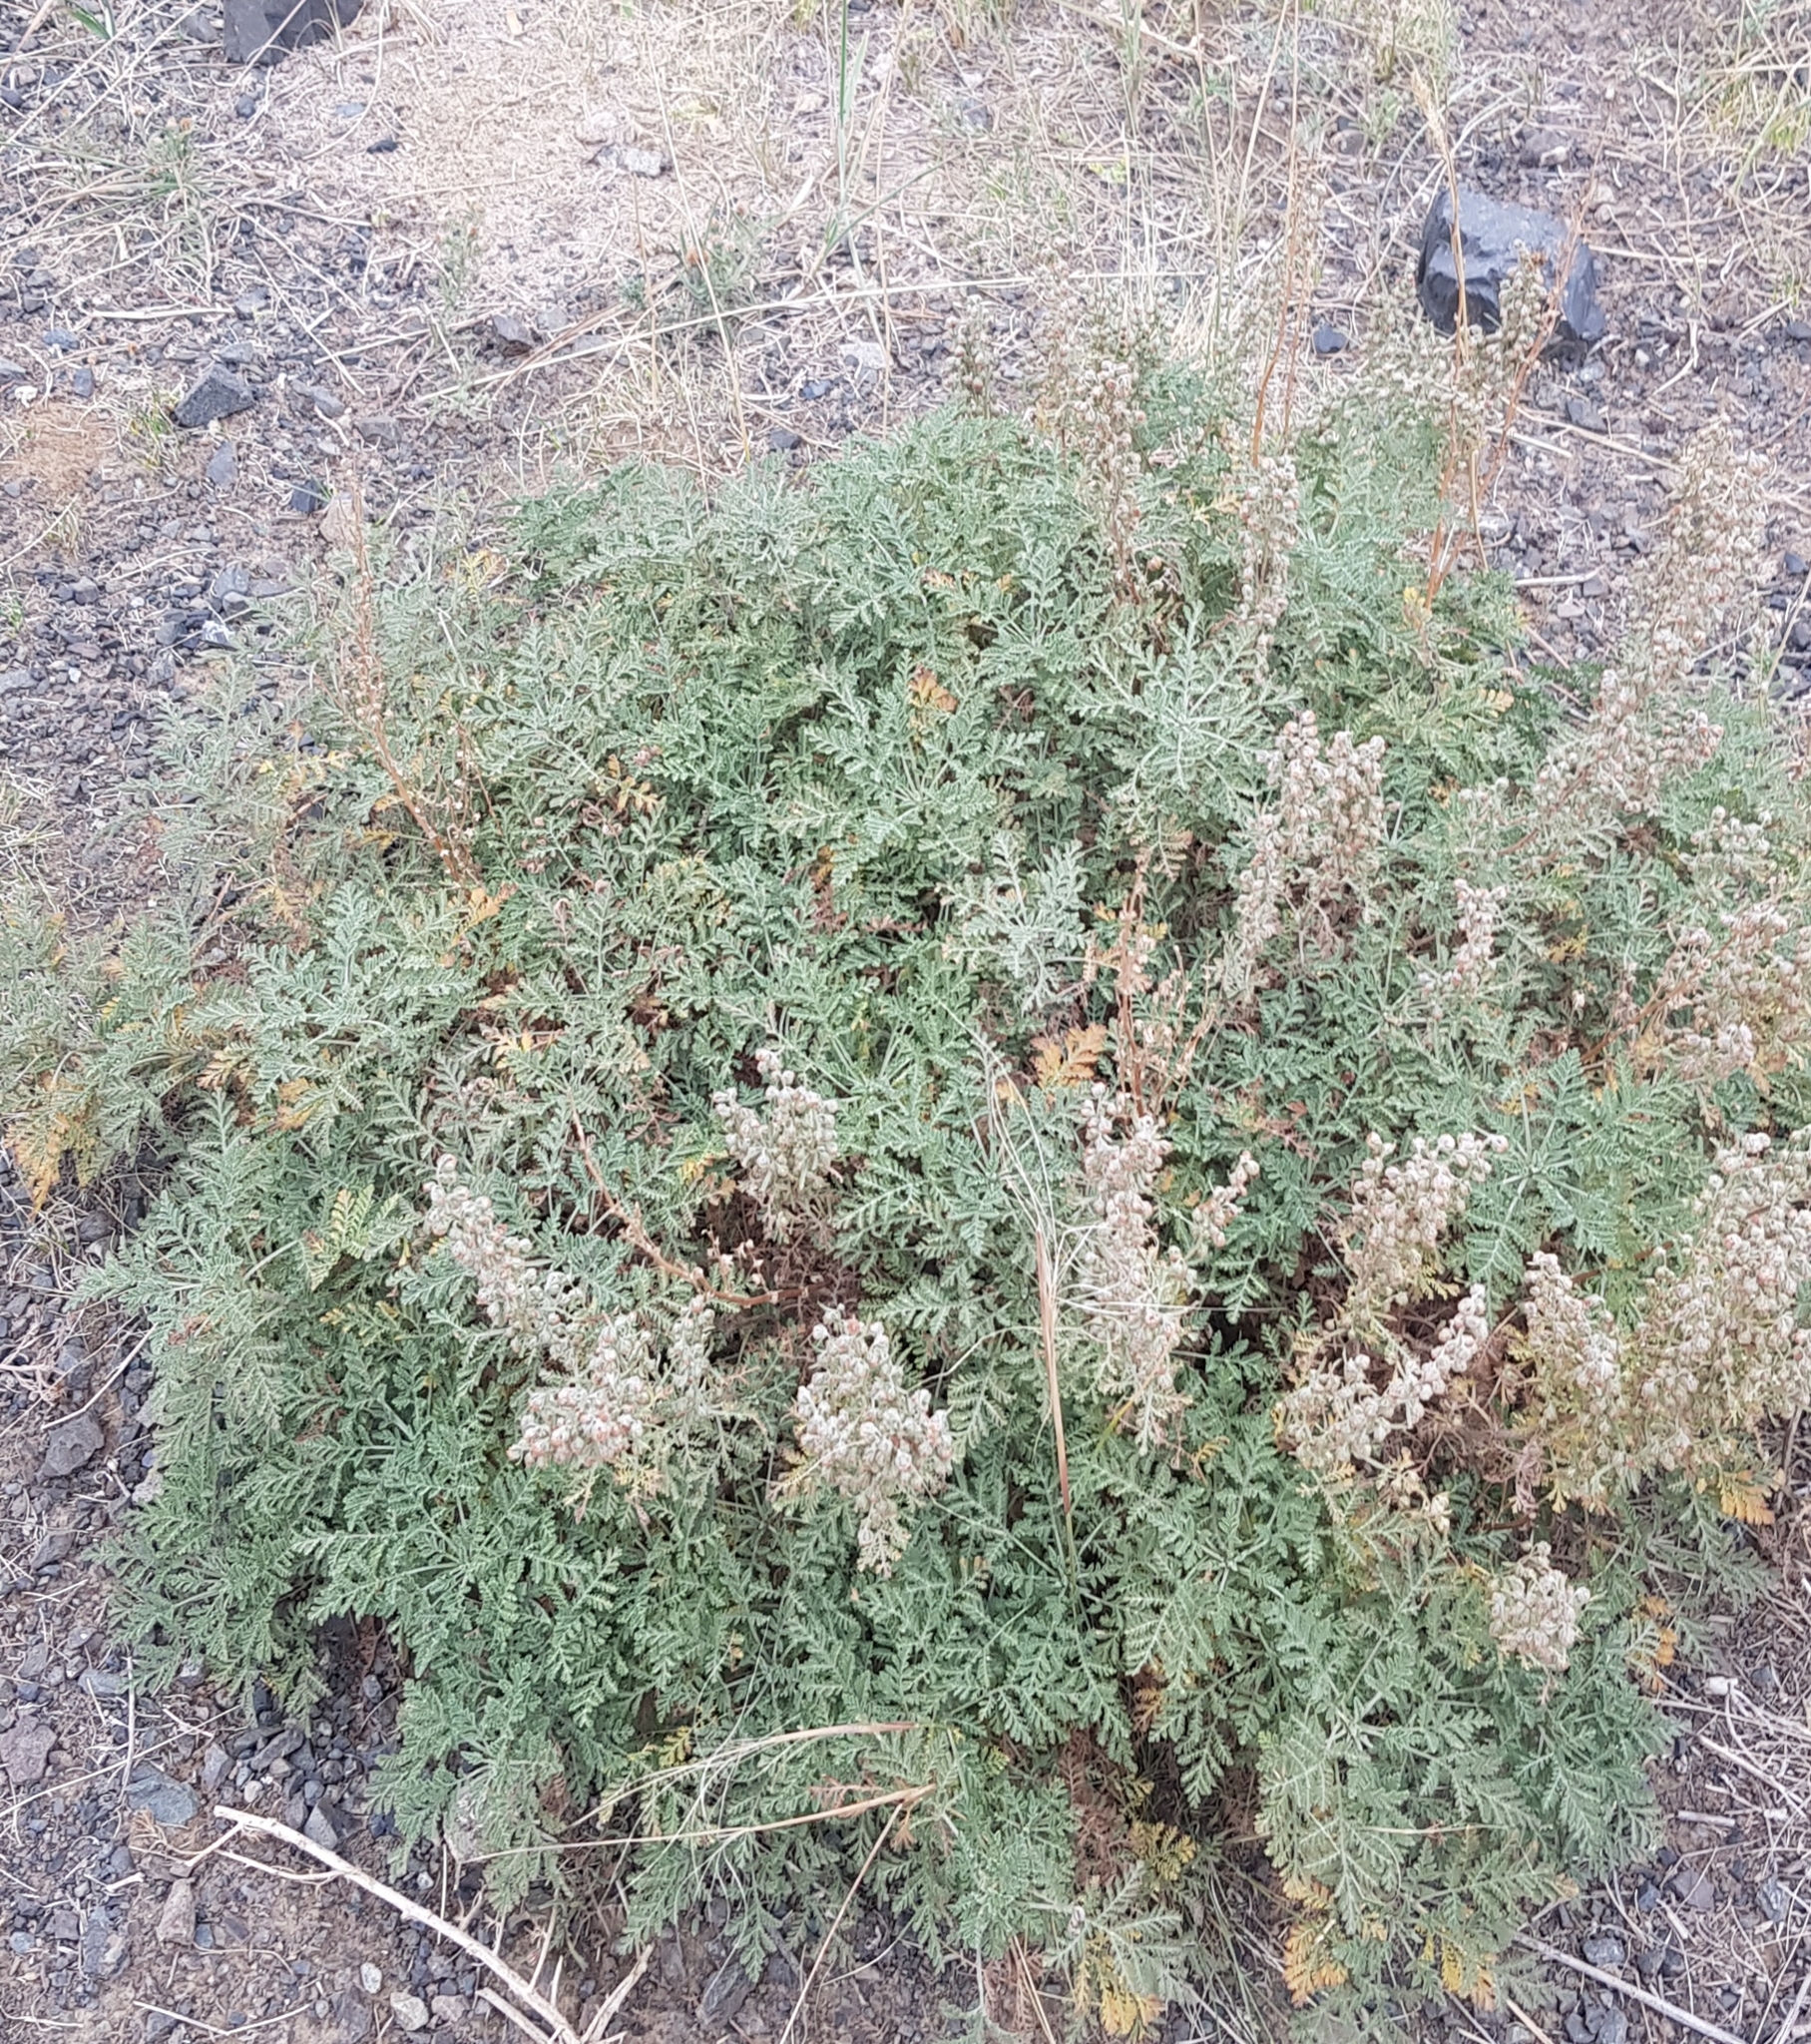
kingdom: Plantae
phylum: Tracheophyta
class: Magnoliopsida
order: Asterales
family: Asteraceae
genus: Artemisia
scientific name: Artemisia
